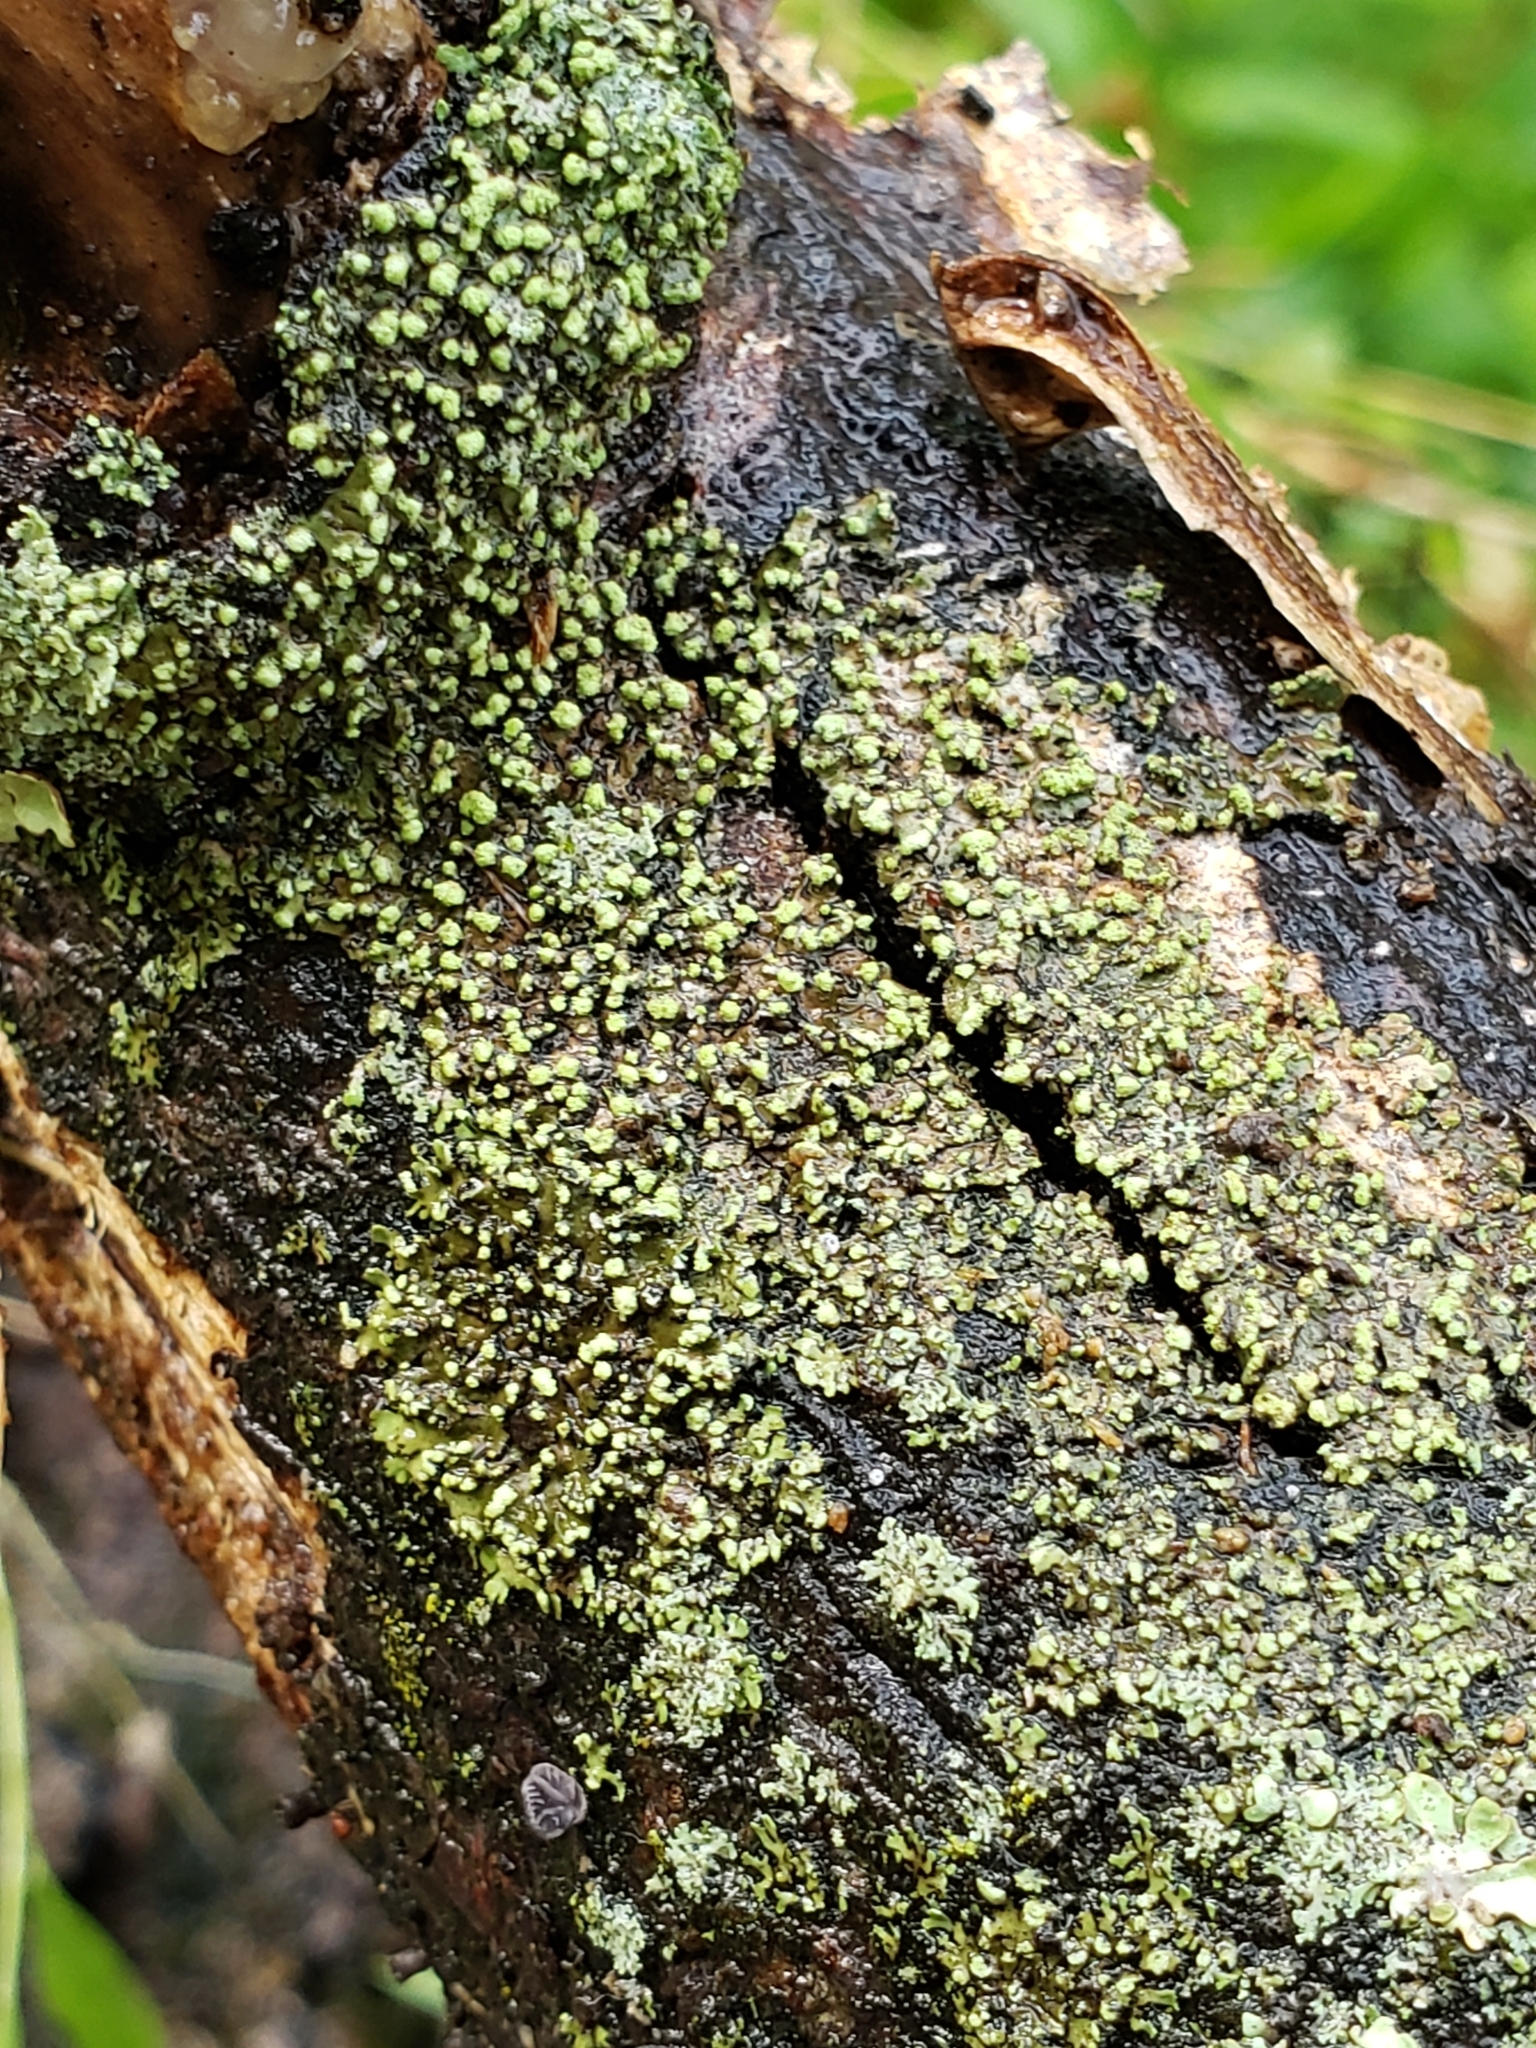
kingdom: Fungi
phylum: Ascomycota
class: Lecanoromycetes
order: Caliciales
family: Physciaceae
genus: Phaeophyscia
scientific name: Phaeophyscia pusilloides
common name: Pom-pom shadow lichen
